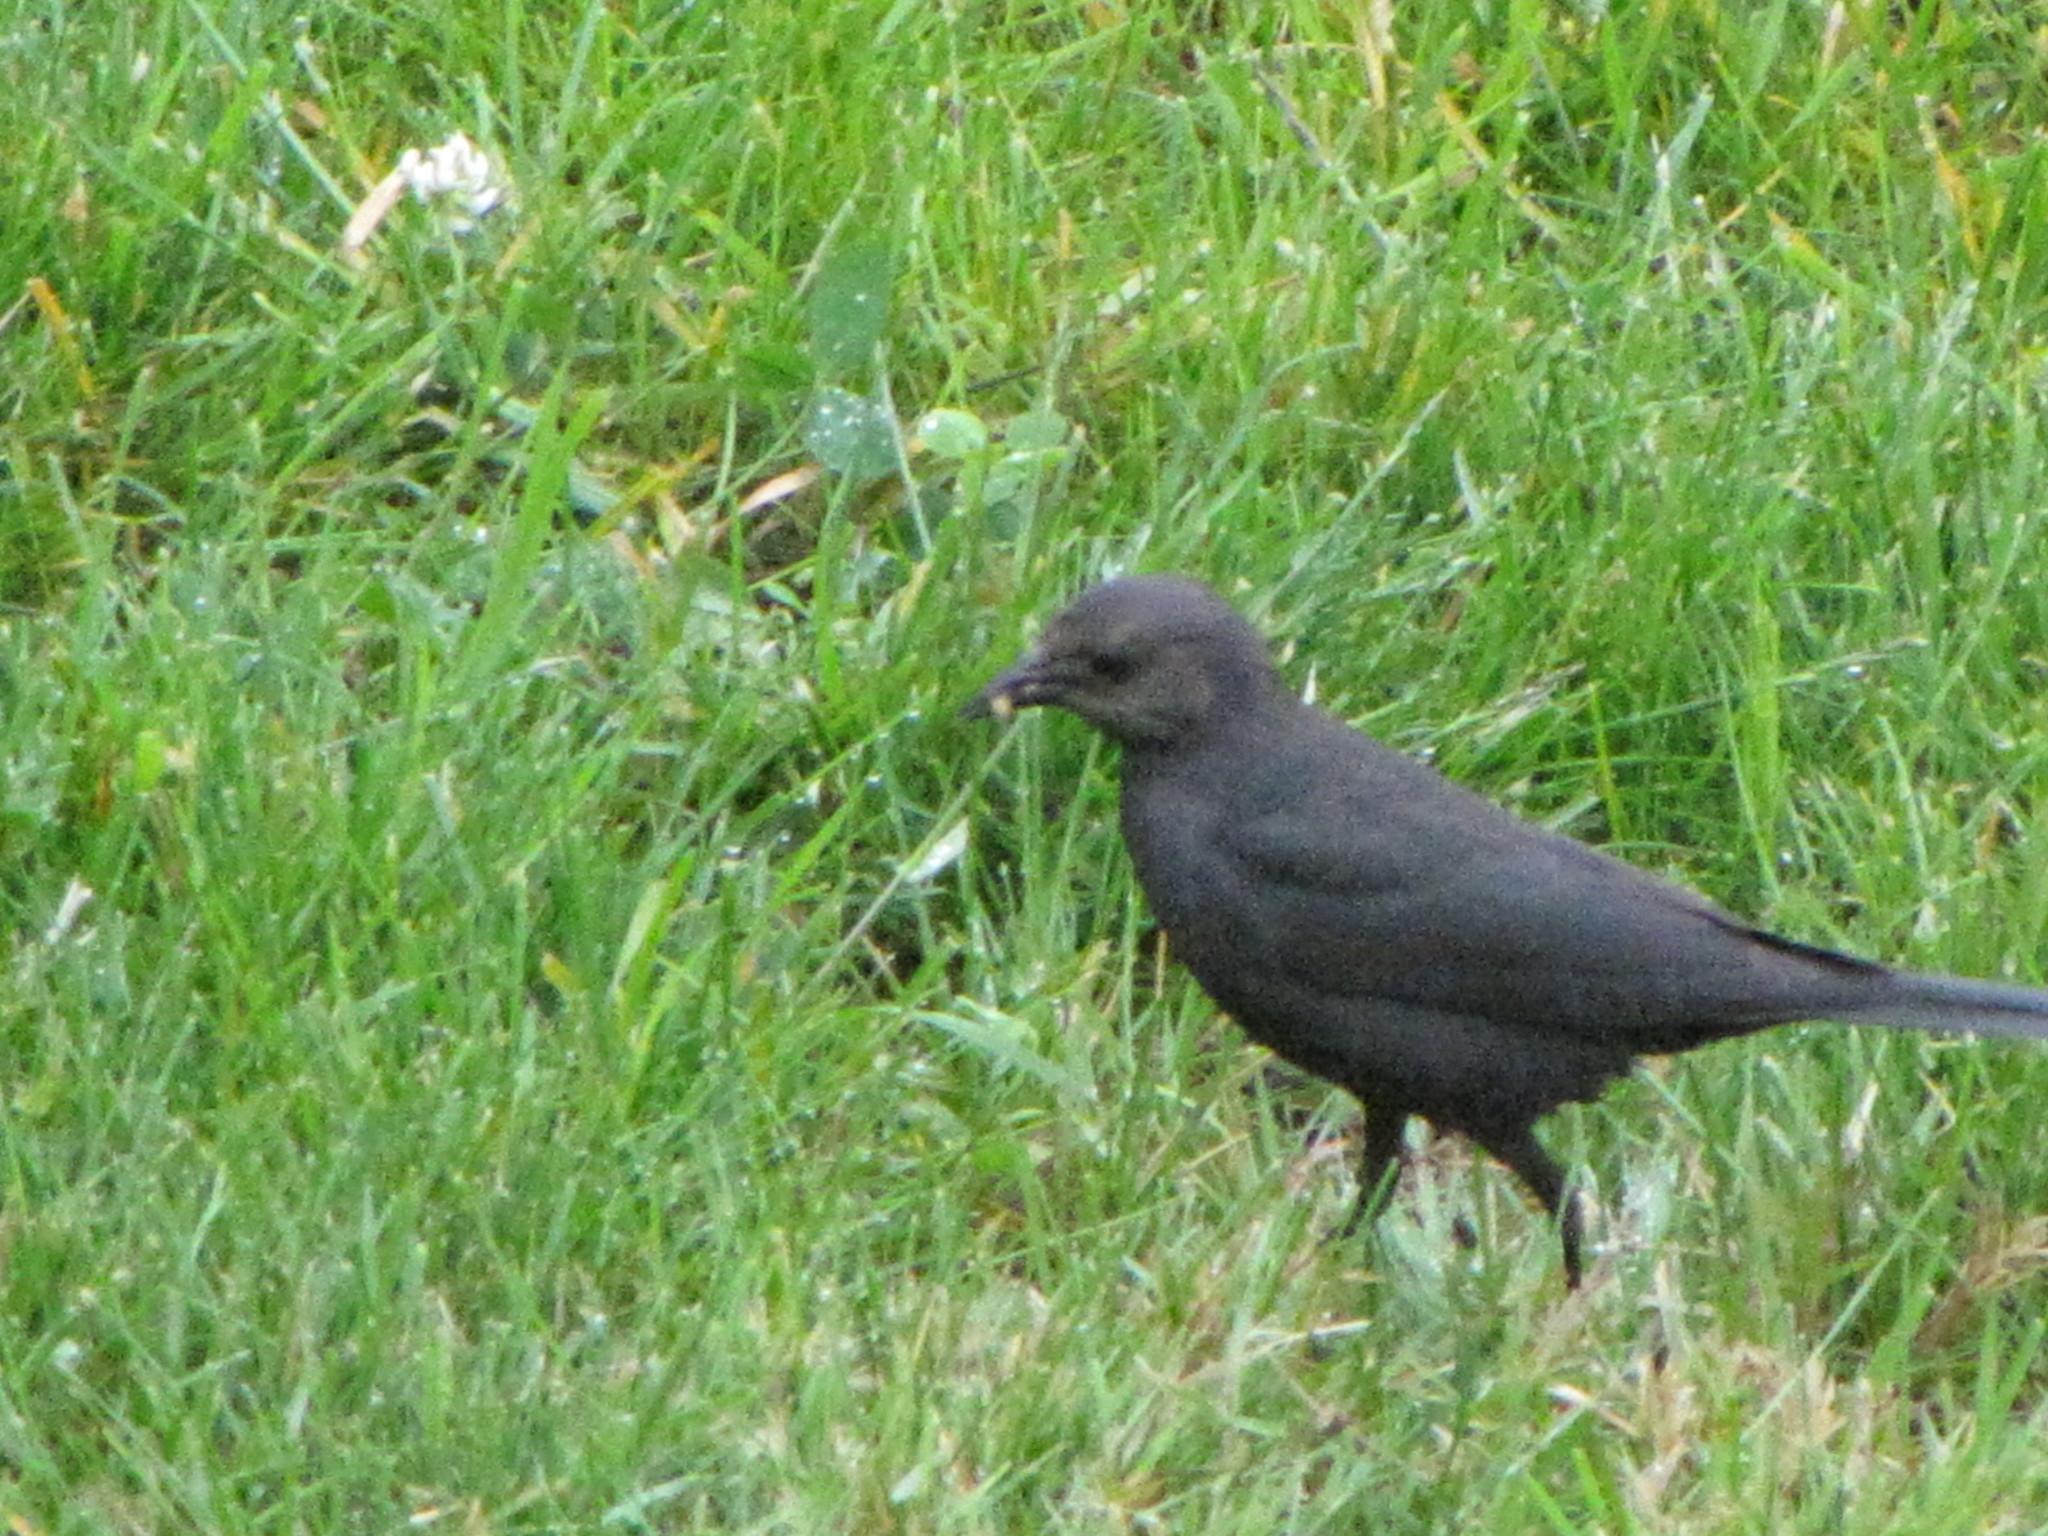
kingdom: Animalia
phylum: Chordata
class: Aves
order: Passeriformes
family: Icteridae
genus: Euphagus
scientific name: Euphagus cyanocephalus
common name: Brewer's blackbird
